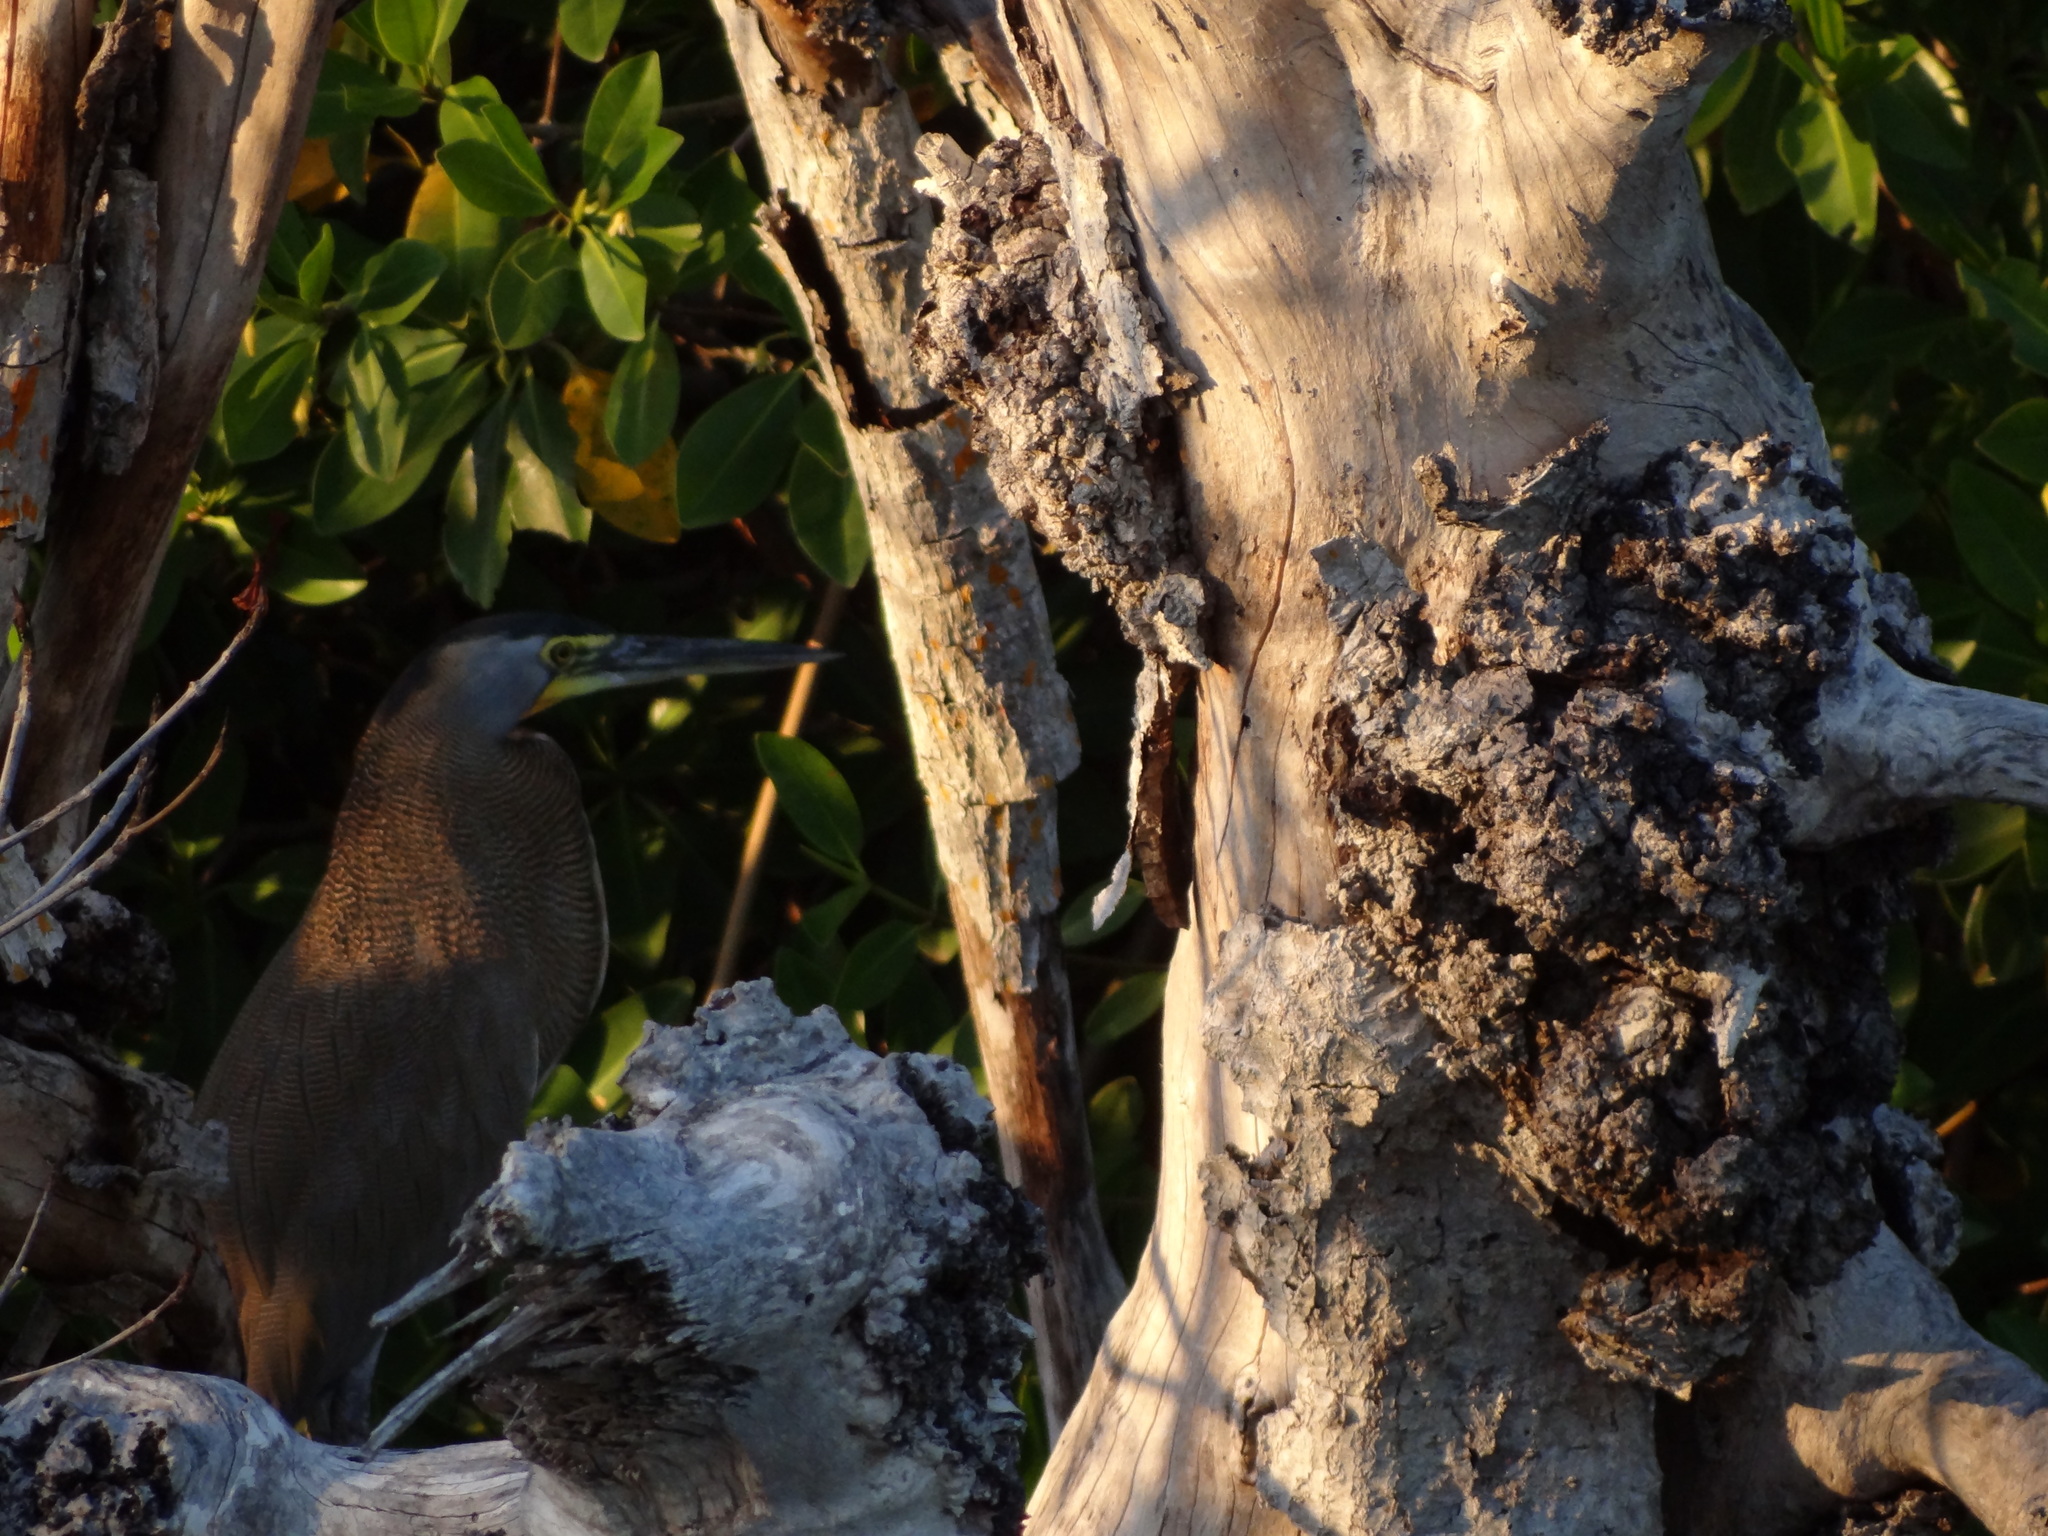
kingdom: Animalia
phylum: Chordata
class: Aves
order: Pelecaniformes
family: Ardeidae
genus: Tigrisoma
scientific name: Tigrisoma mexicanum
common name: Bare-throated tiger-heron
